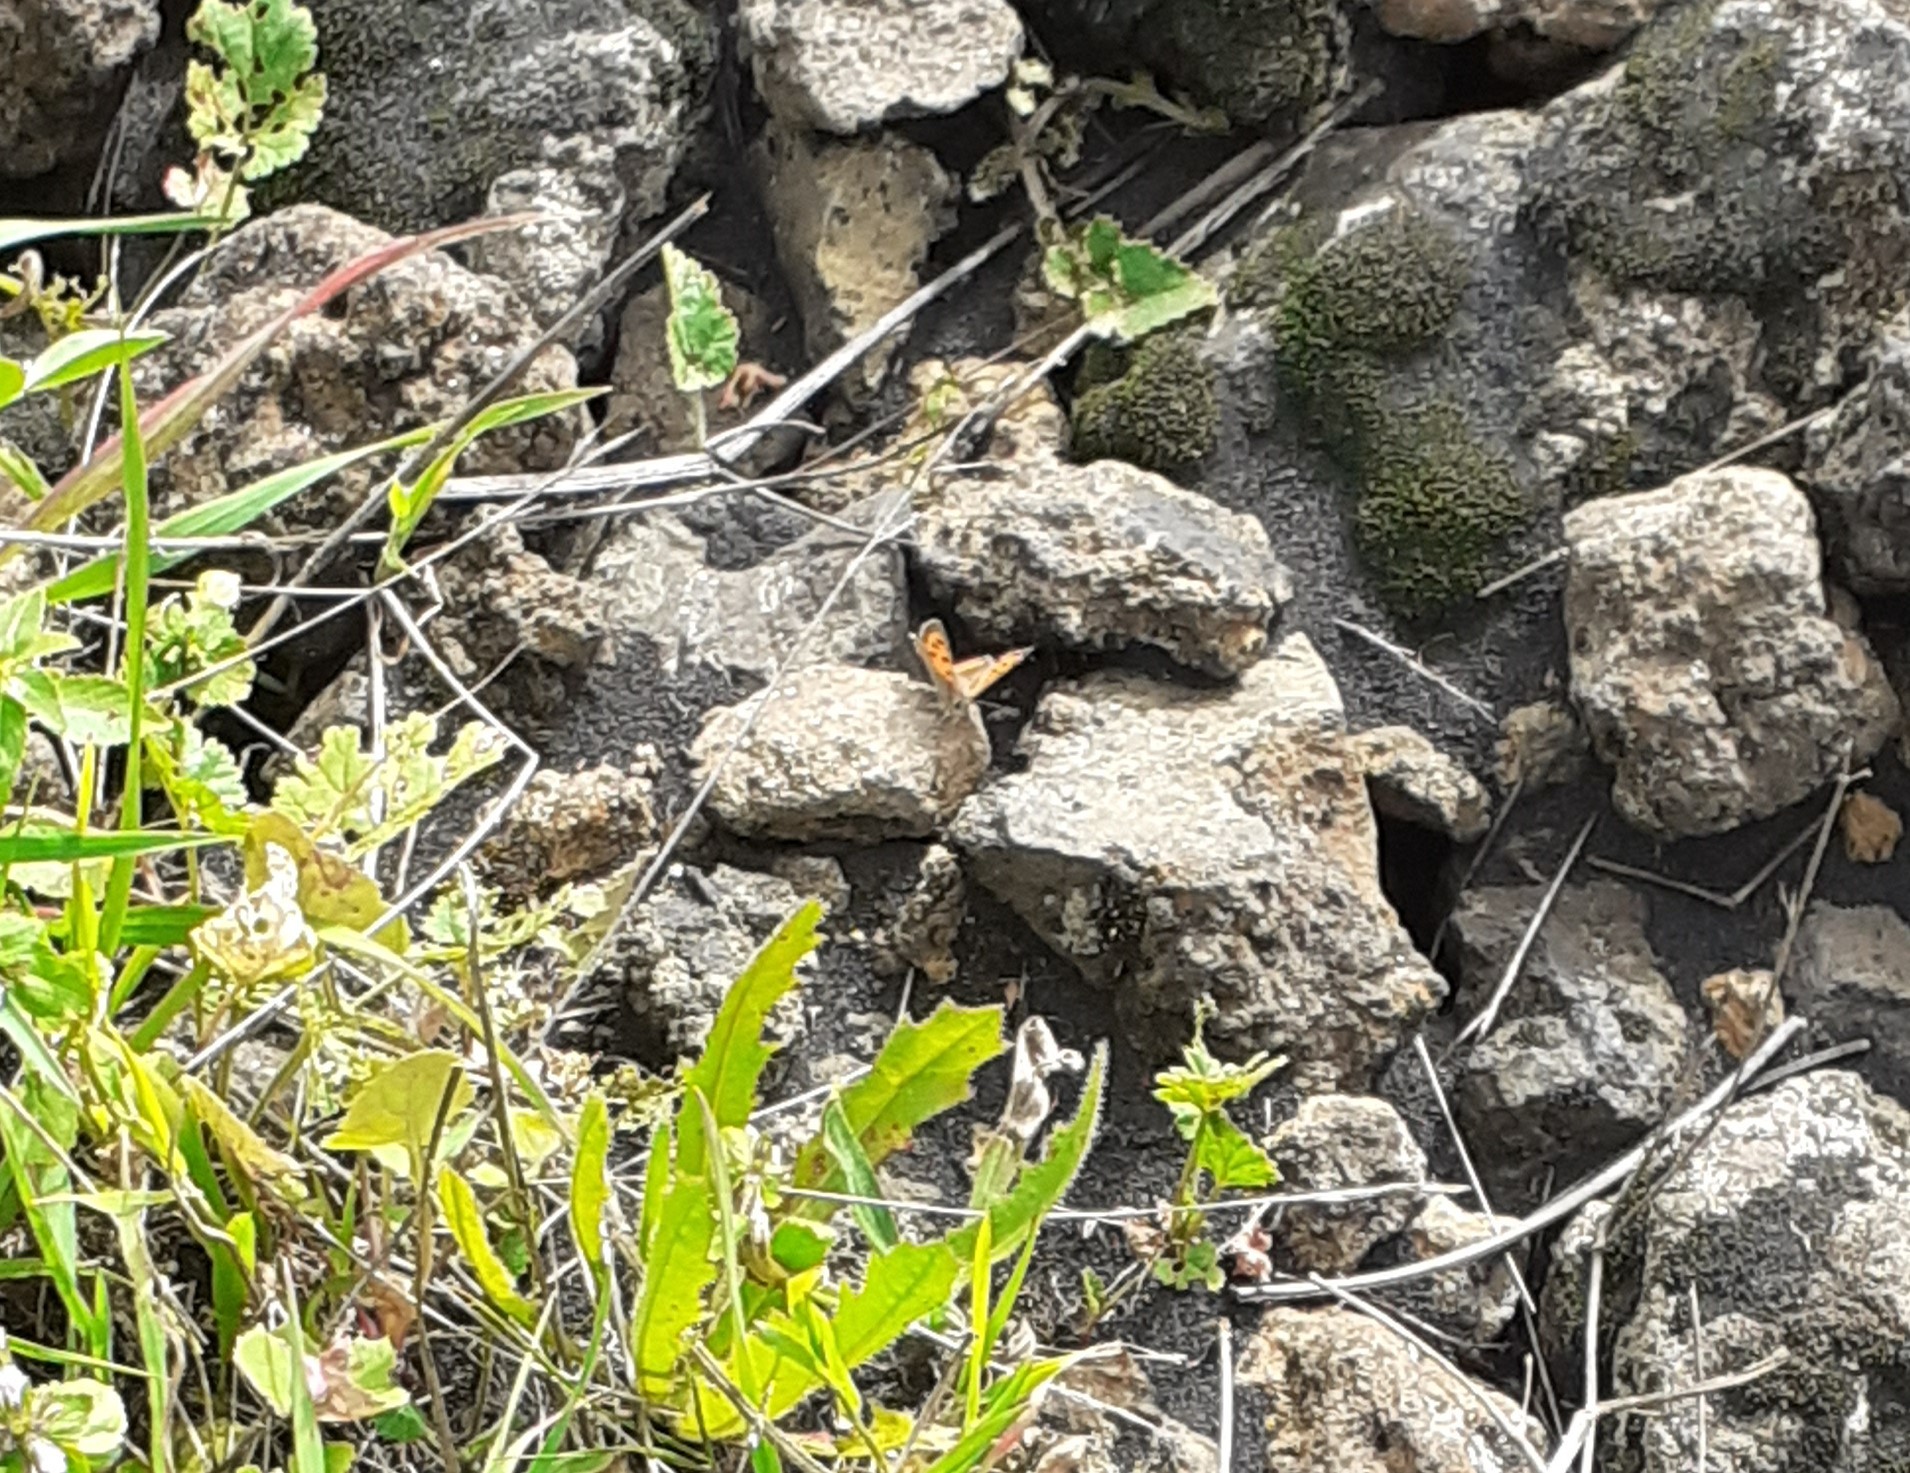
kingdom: Animalia
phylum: Arthropoda
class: Insecta
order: Lepidoptera
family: Lycaenidae
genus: Lycaena
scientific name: Lycaena phlaeas
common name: Small copper
